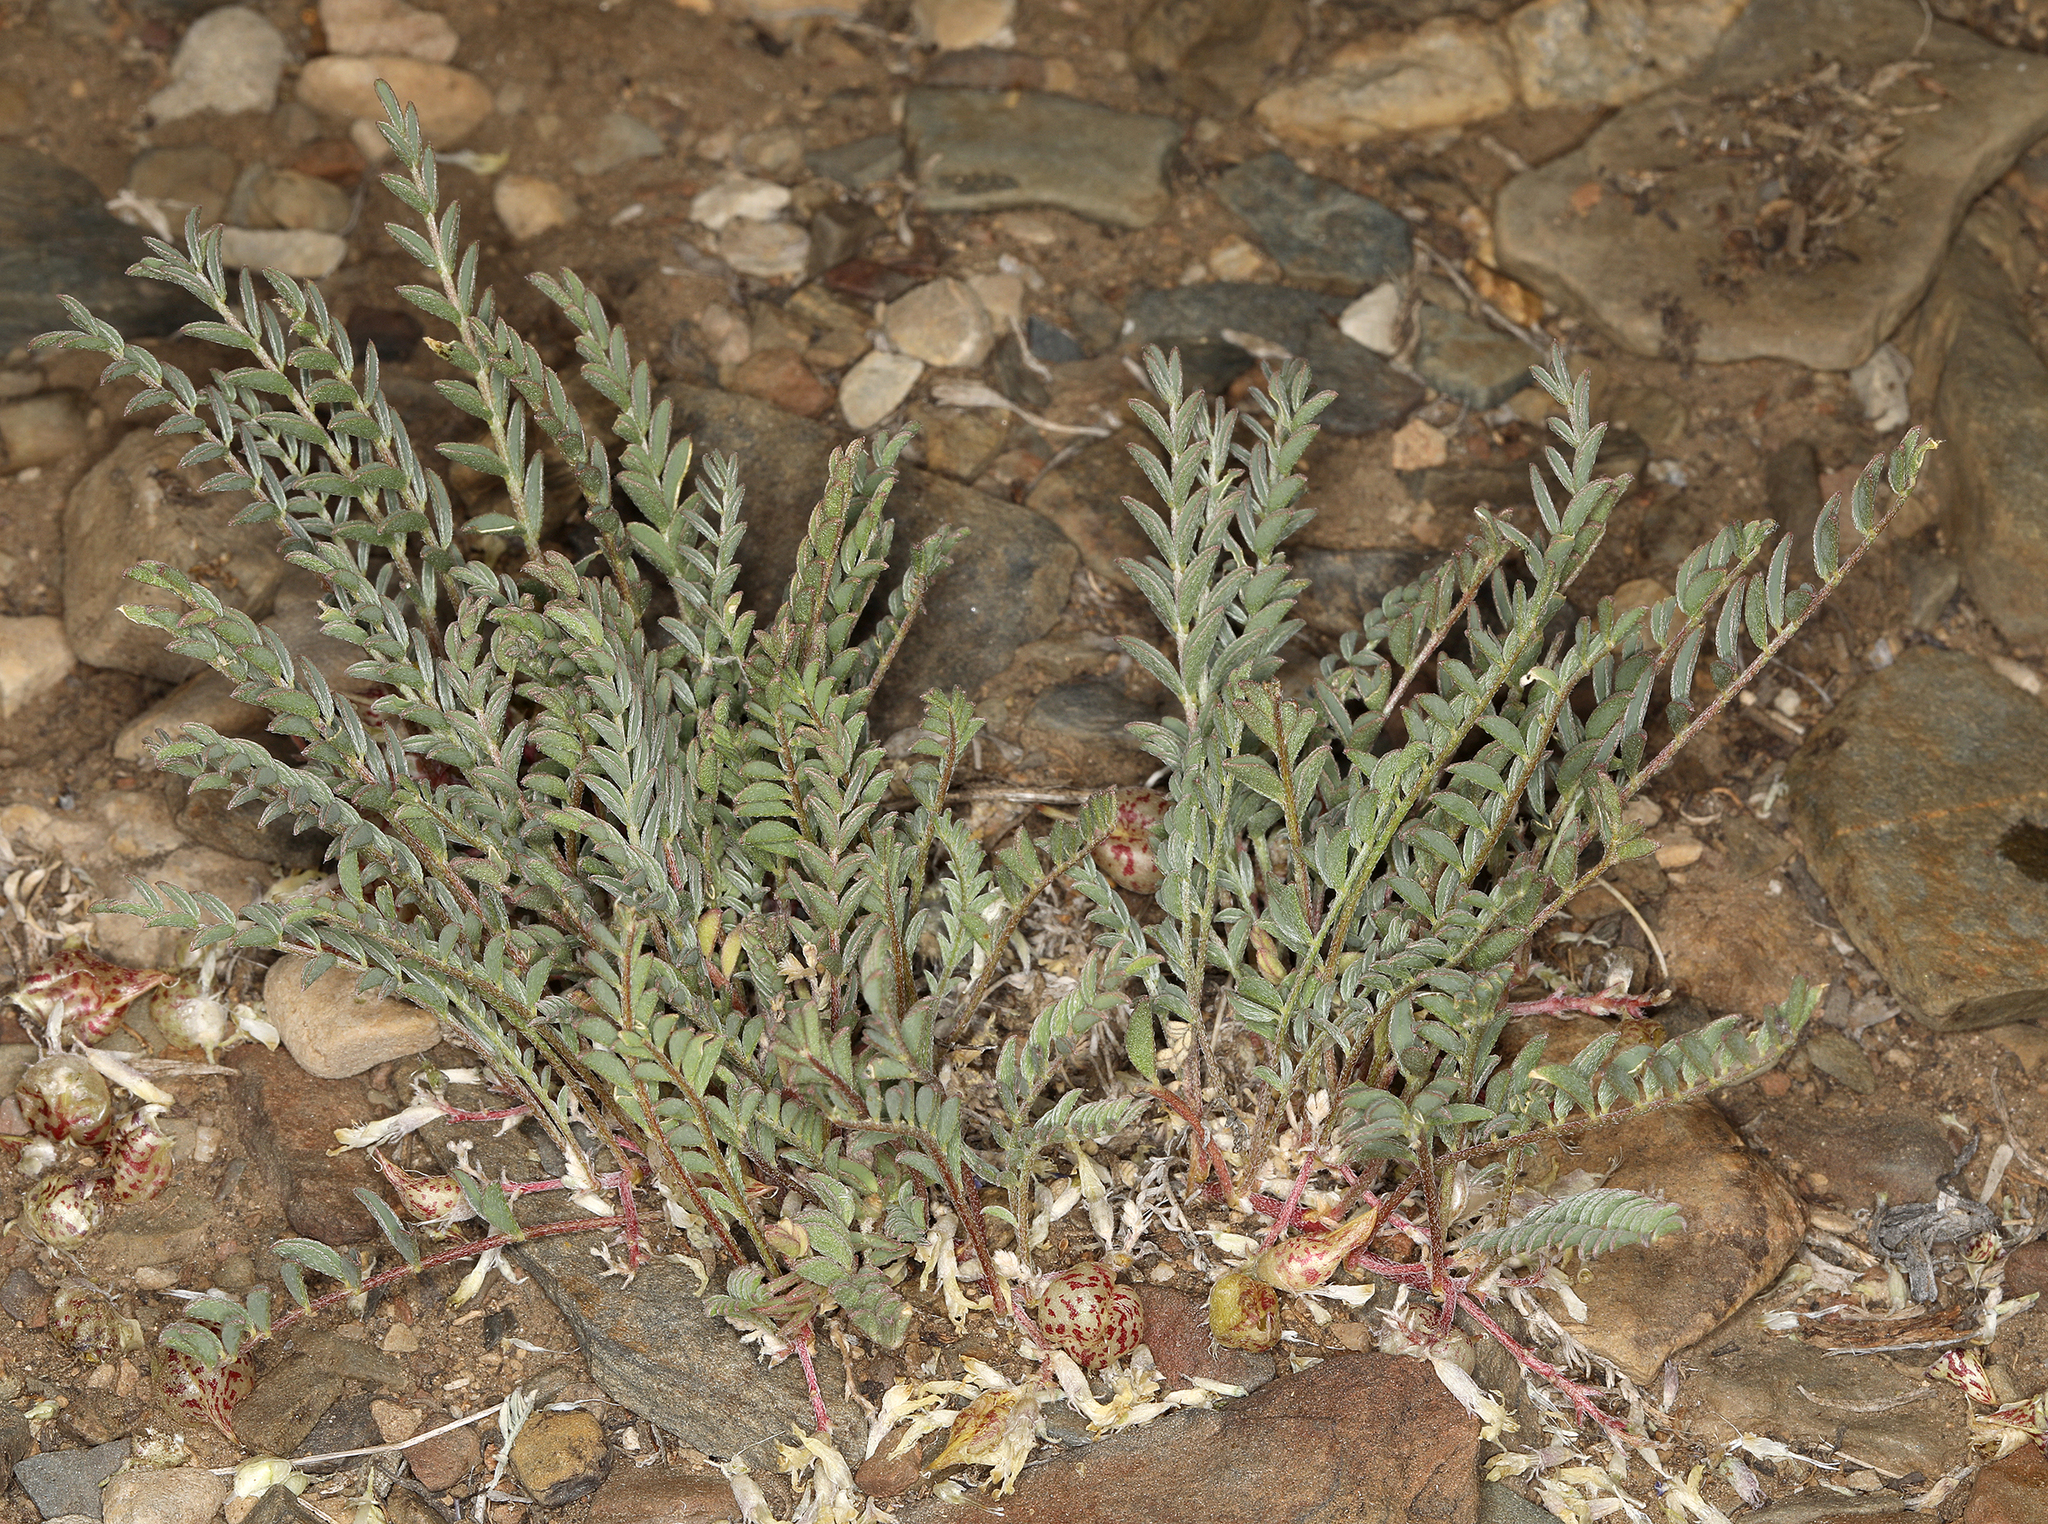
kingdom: Plantae
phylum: Tracheophyta
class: Magnoliopsida
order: Fabales
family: Fabaceae
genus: Astragalus
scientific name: Astragalus lentiginosus
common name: Freckled milkvetch
